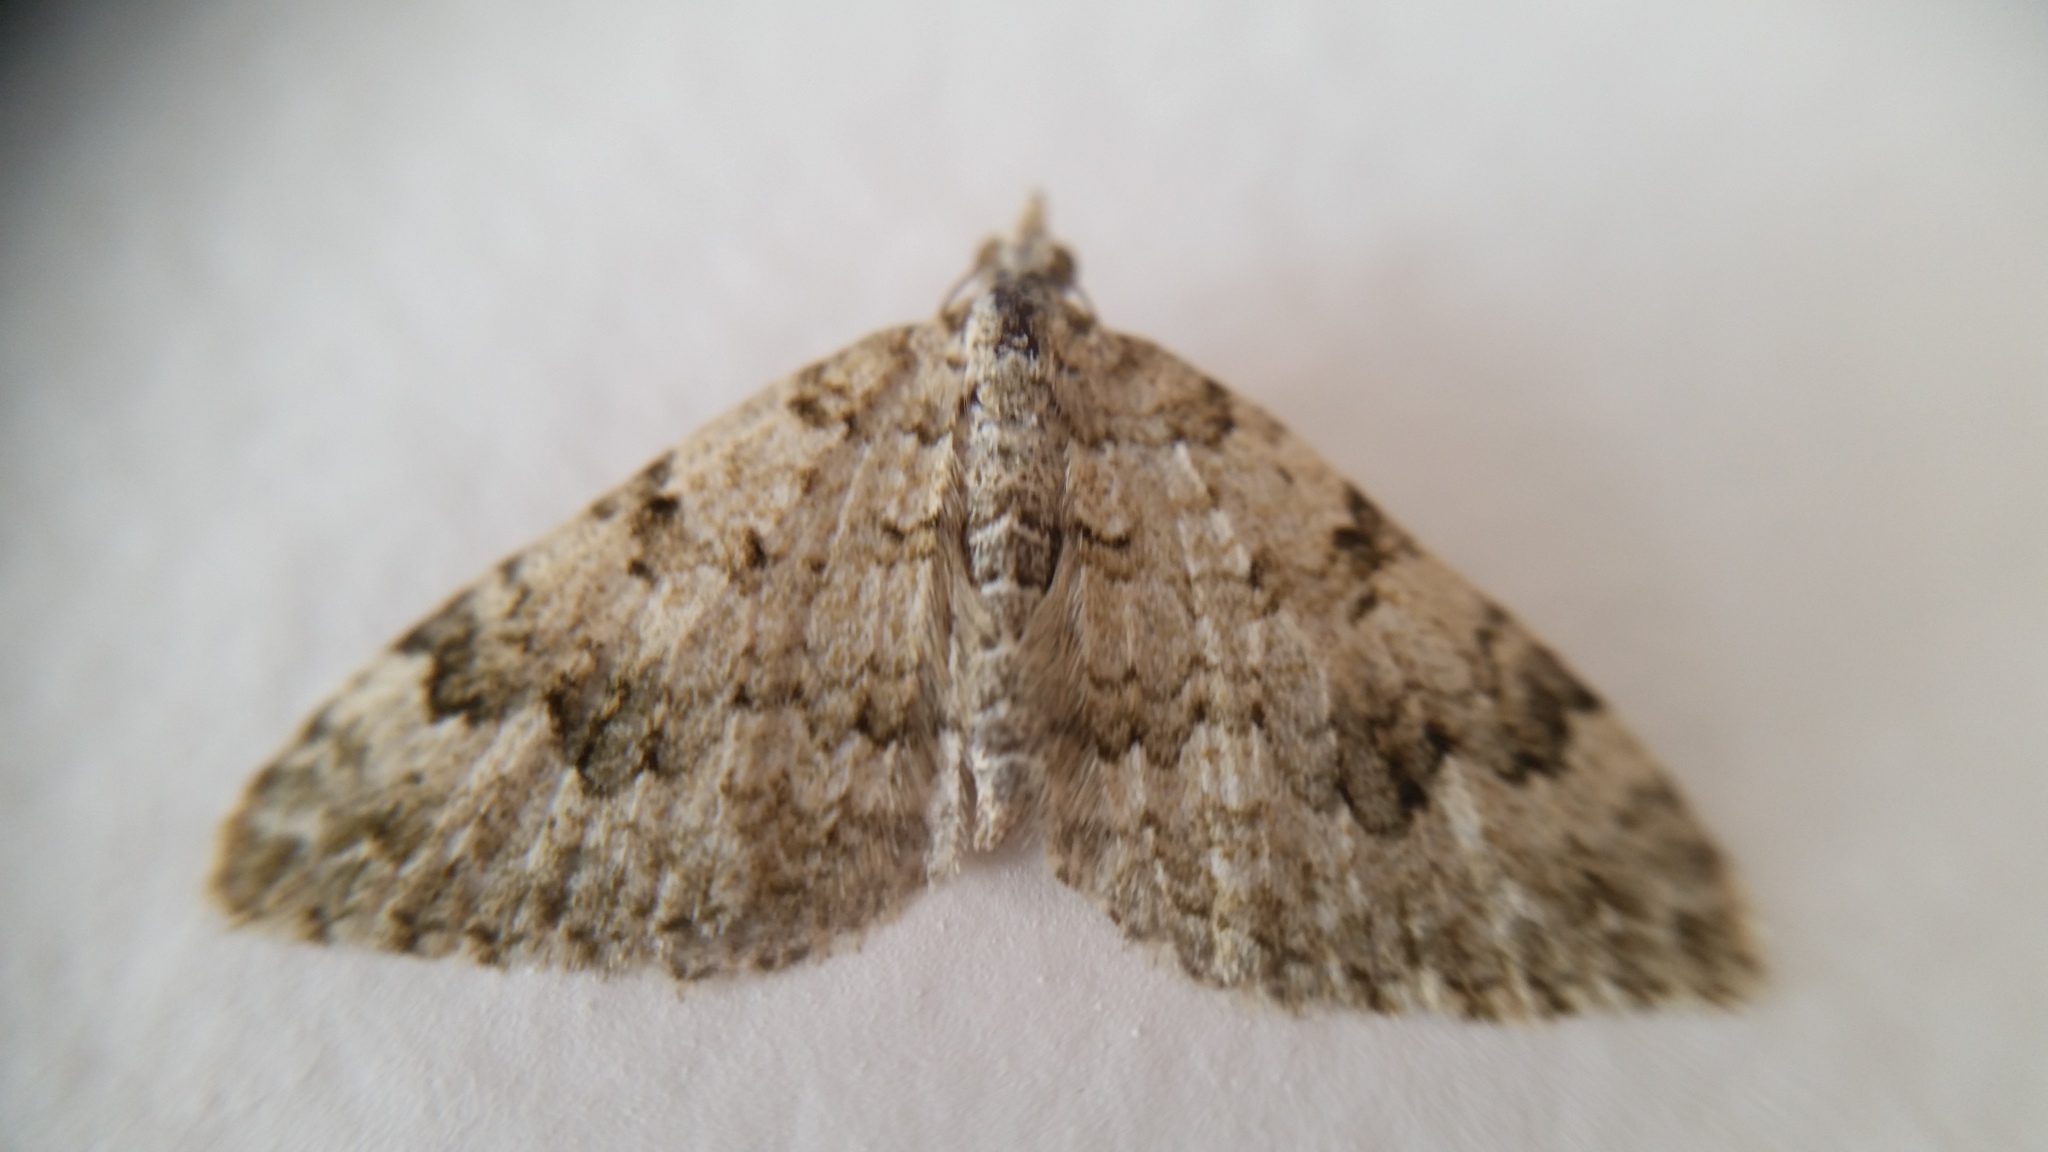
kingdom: Animalia
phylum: Arthropoda
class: Insecta
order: Lepidoptera
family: Geometridae
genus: Helastia
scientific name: Helastia cinerearia
